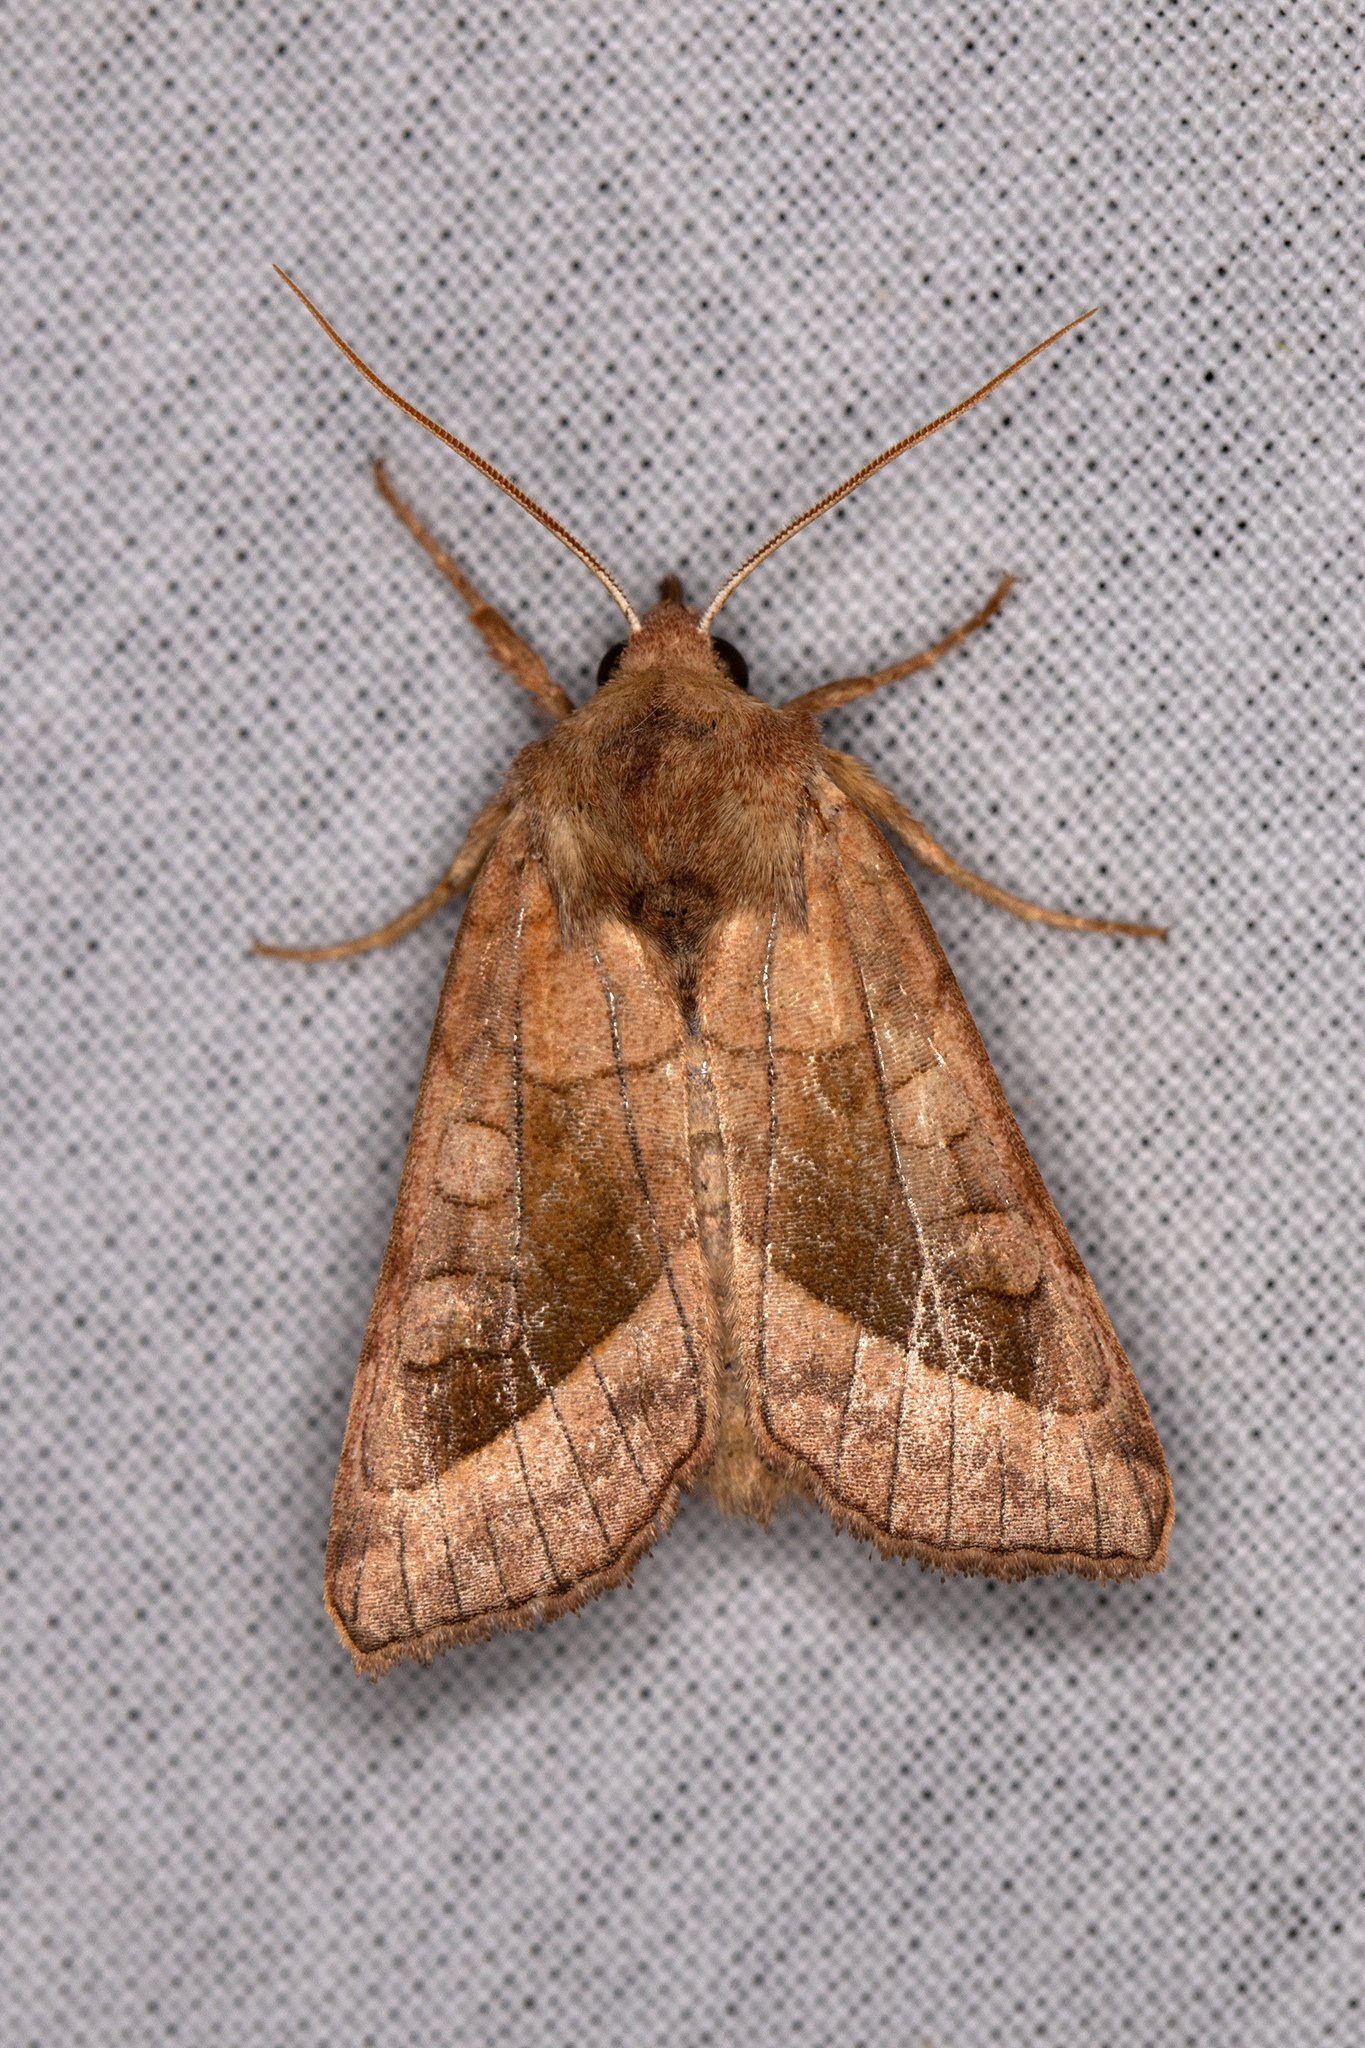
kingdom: Animalia
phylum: Arthropoda
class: Insecta
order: Lepidoptera
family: Noctuidae
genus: Hydraecia
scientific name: Hydraecia micacea
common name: Rosy rustic
